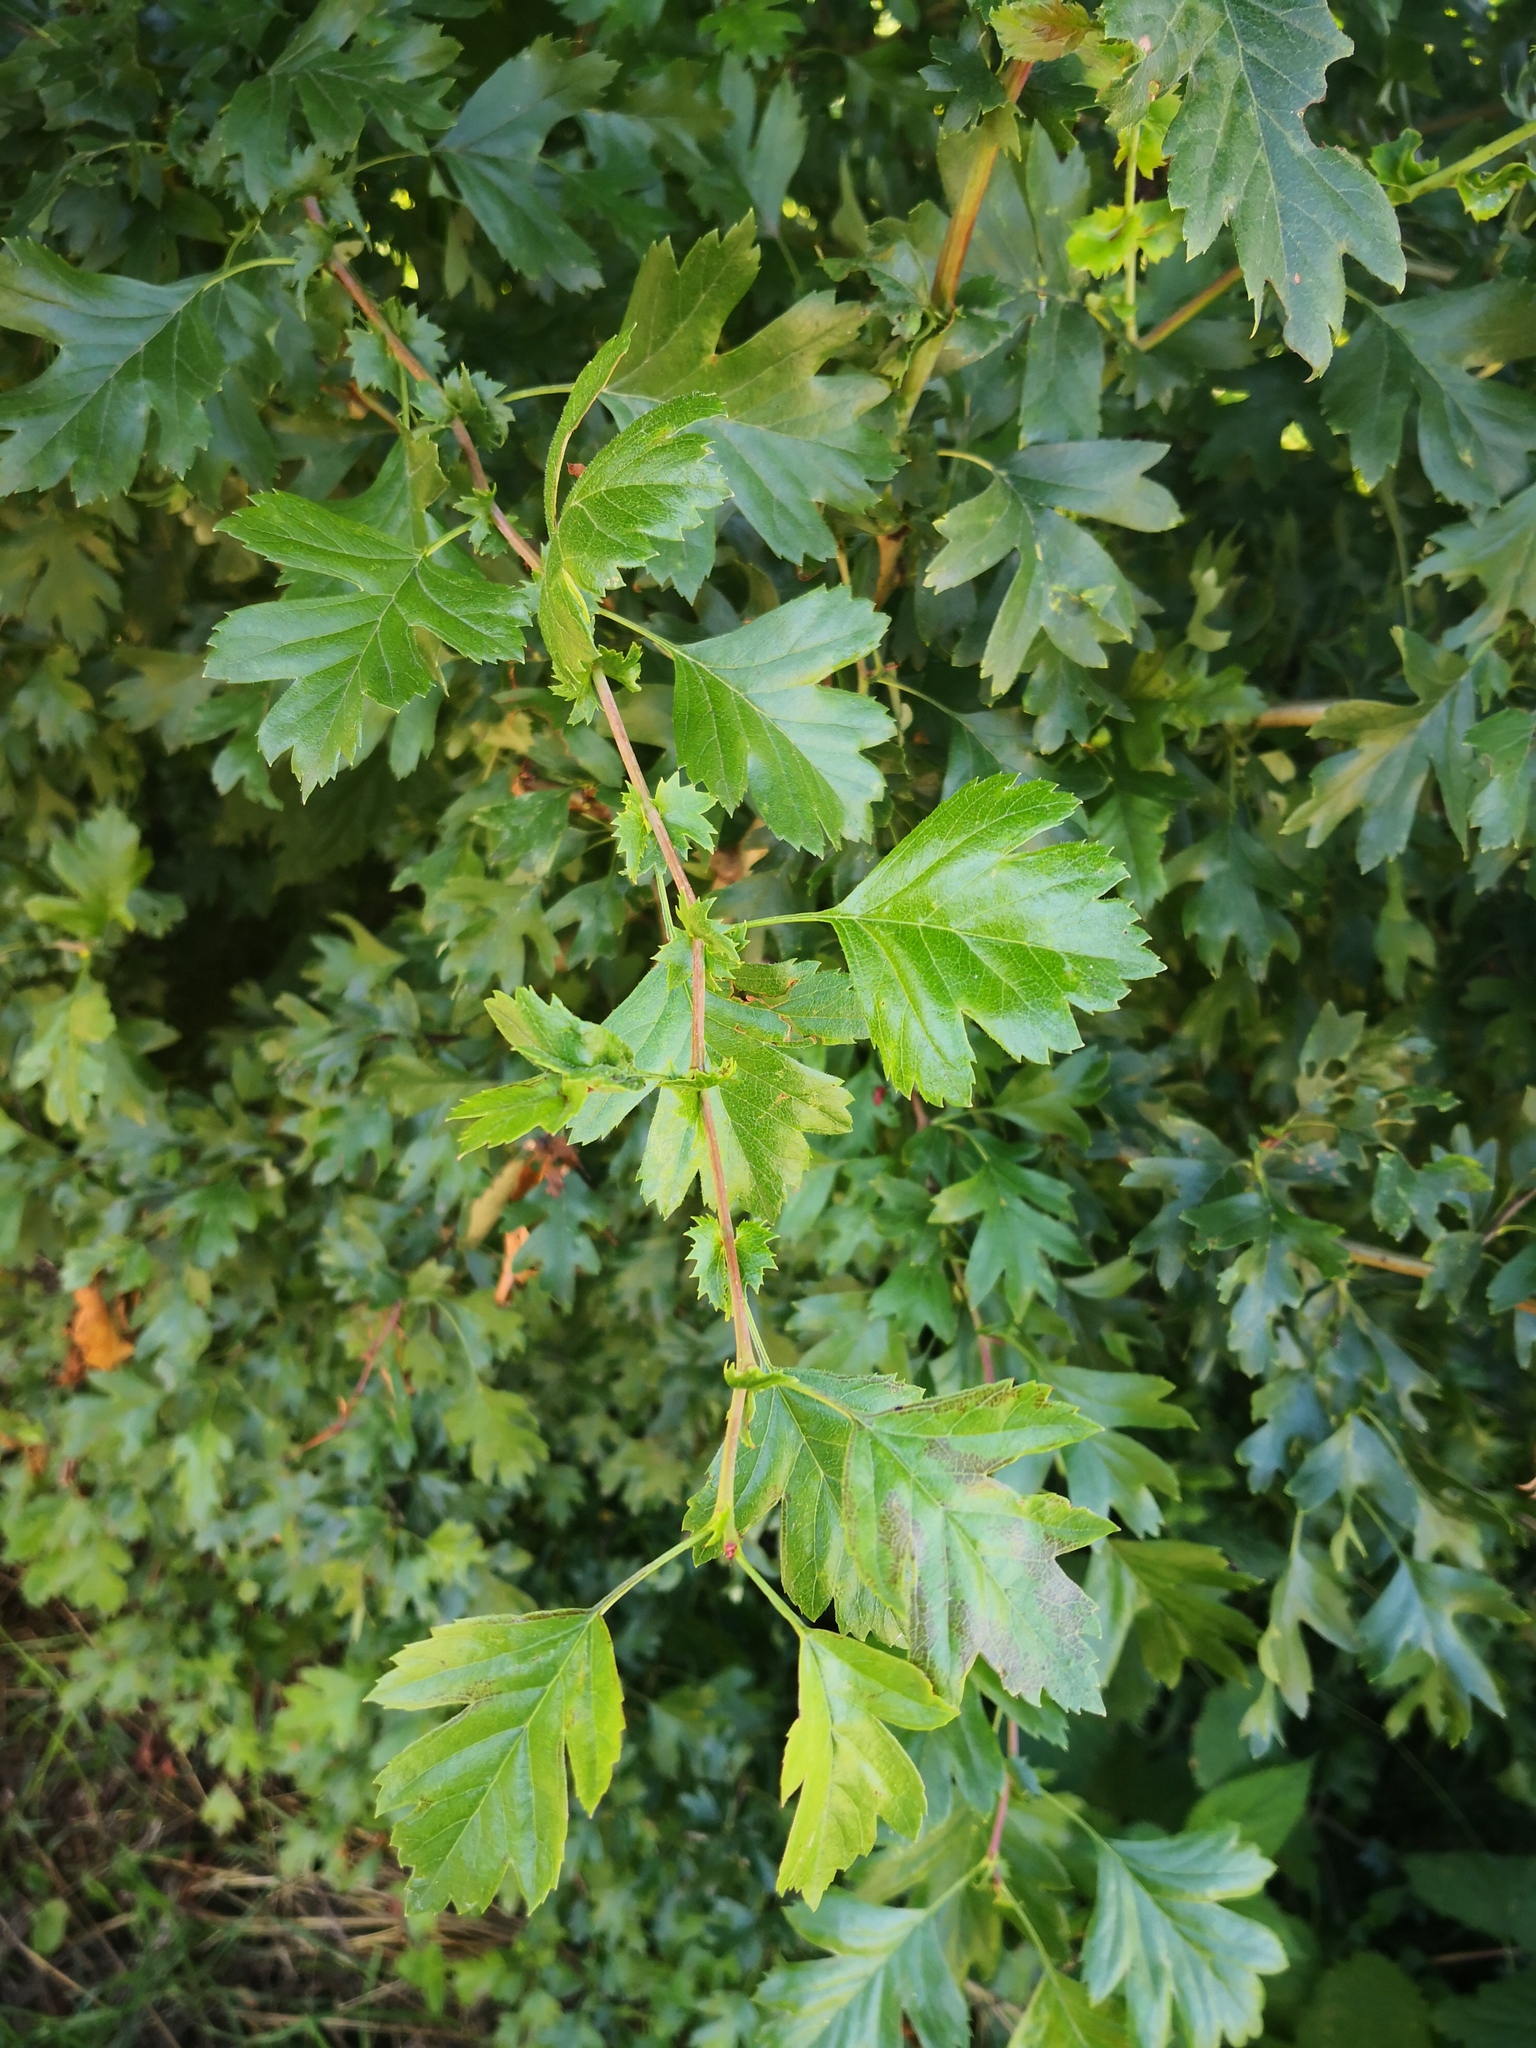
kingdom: Plantae
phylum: Tracheophyta
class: Magnoliopsida
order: Rosales
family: Rosaceae
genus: Crataegus
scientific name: Crataegus monogyna
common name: Hawthorn
